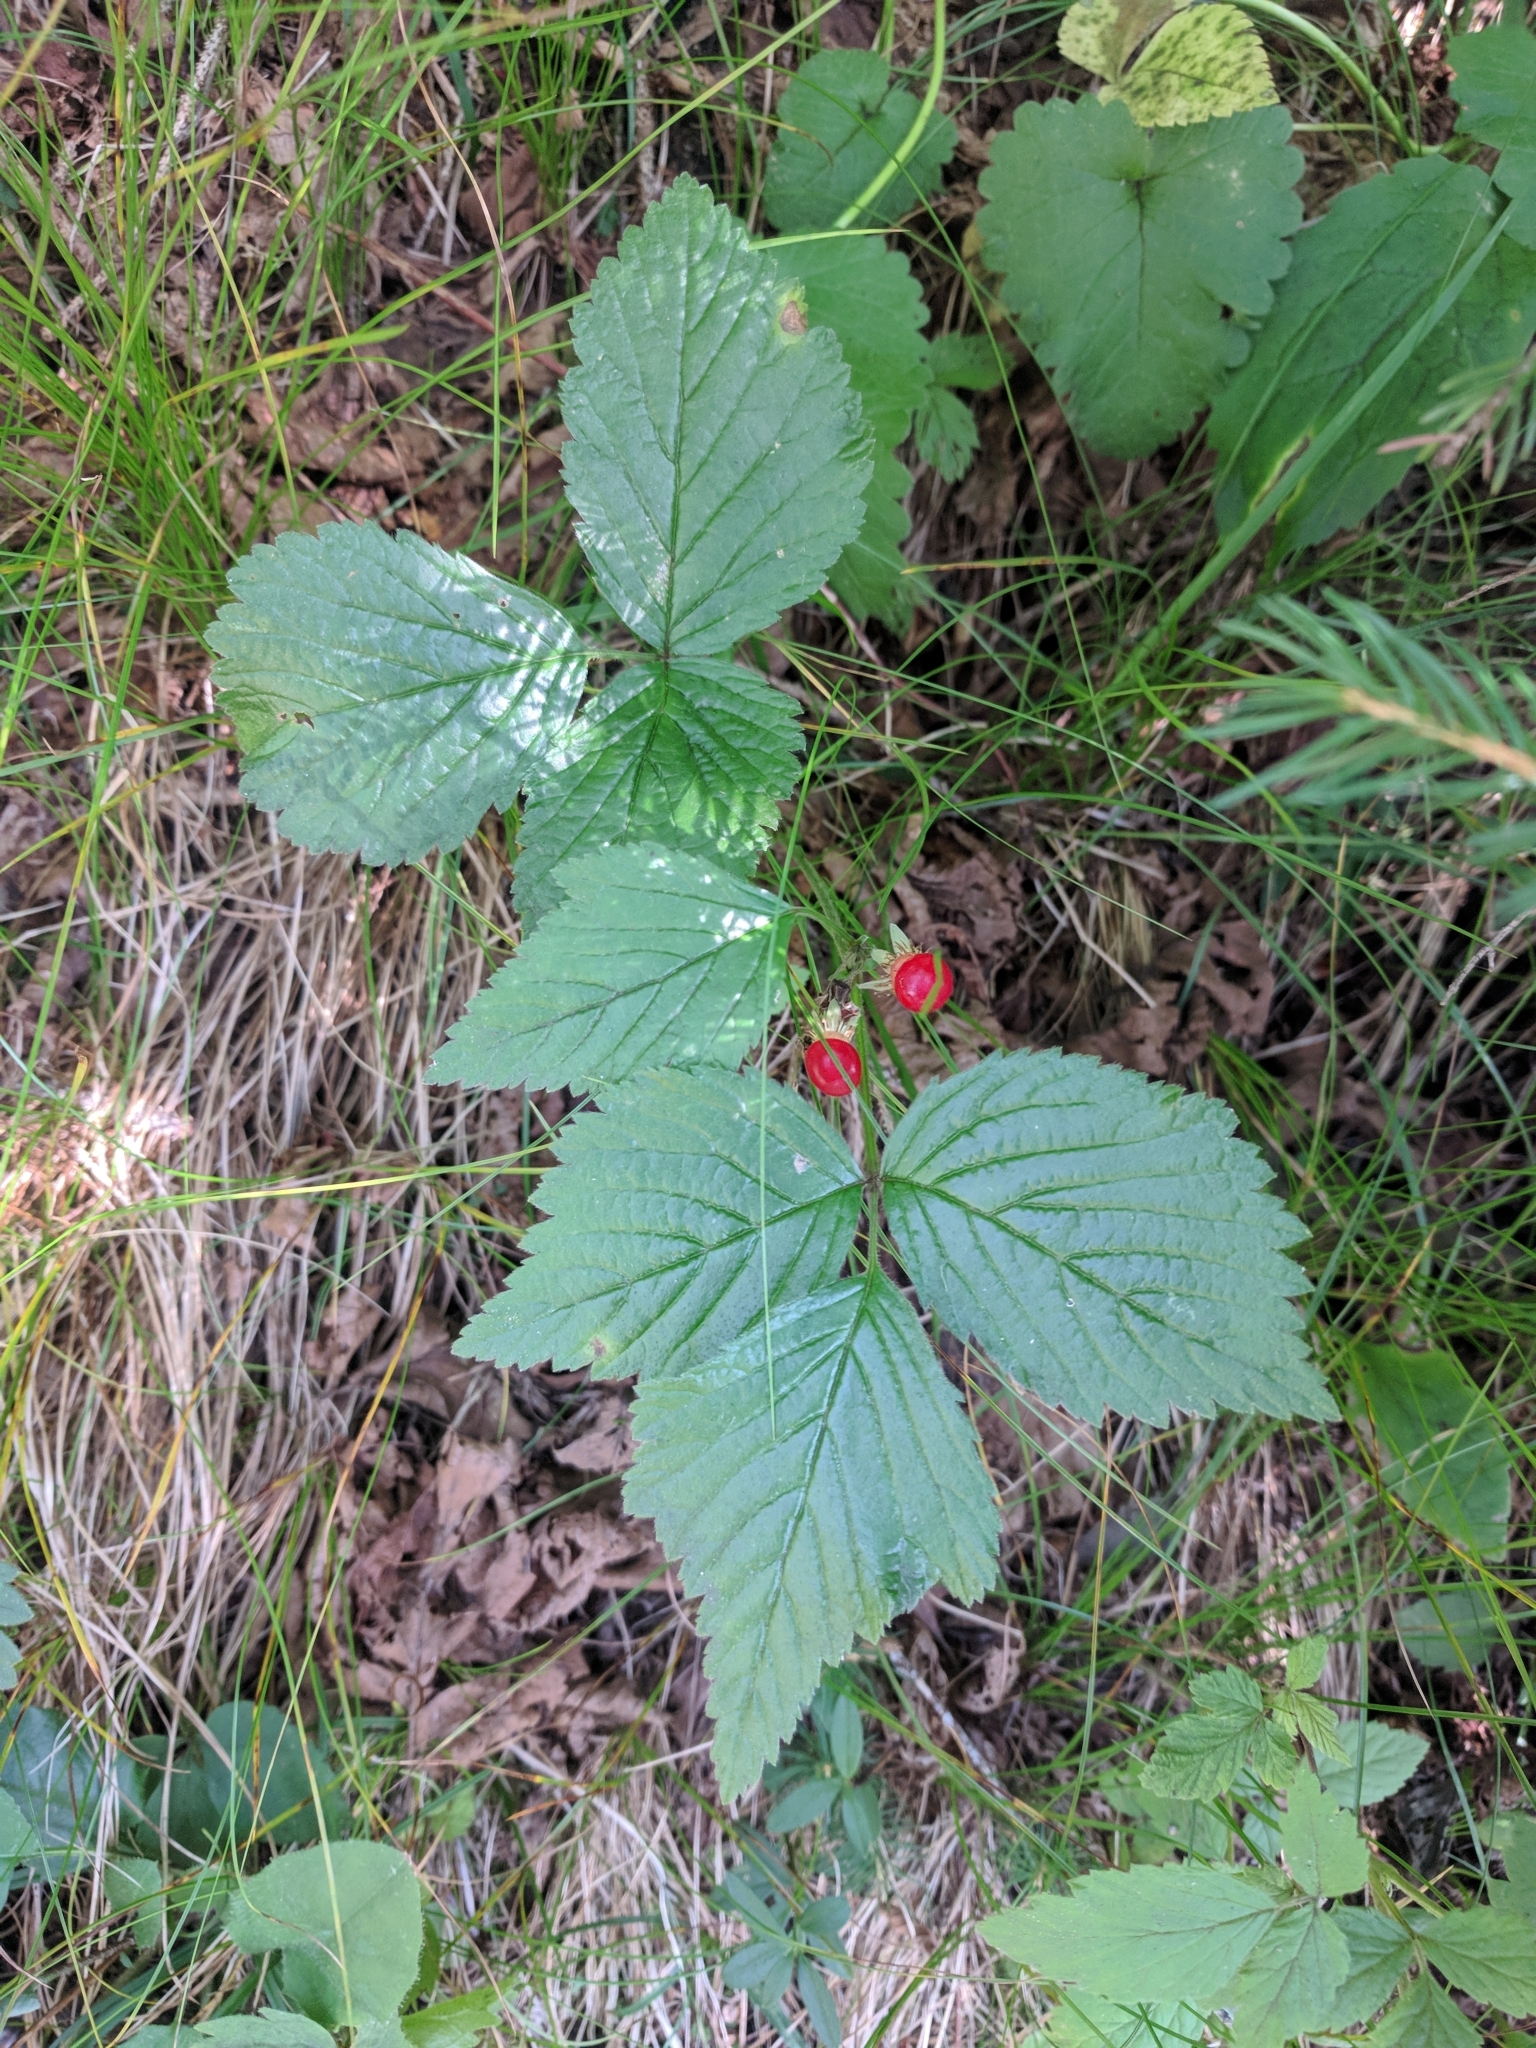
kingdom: Plantae
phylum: Tracheophyta
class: Magnoliopsida
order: Rosales
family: Rosaceae
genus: Rubus
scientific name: Rubus saxatilis
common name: Stone bramble
